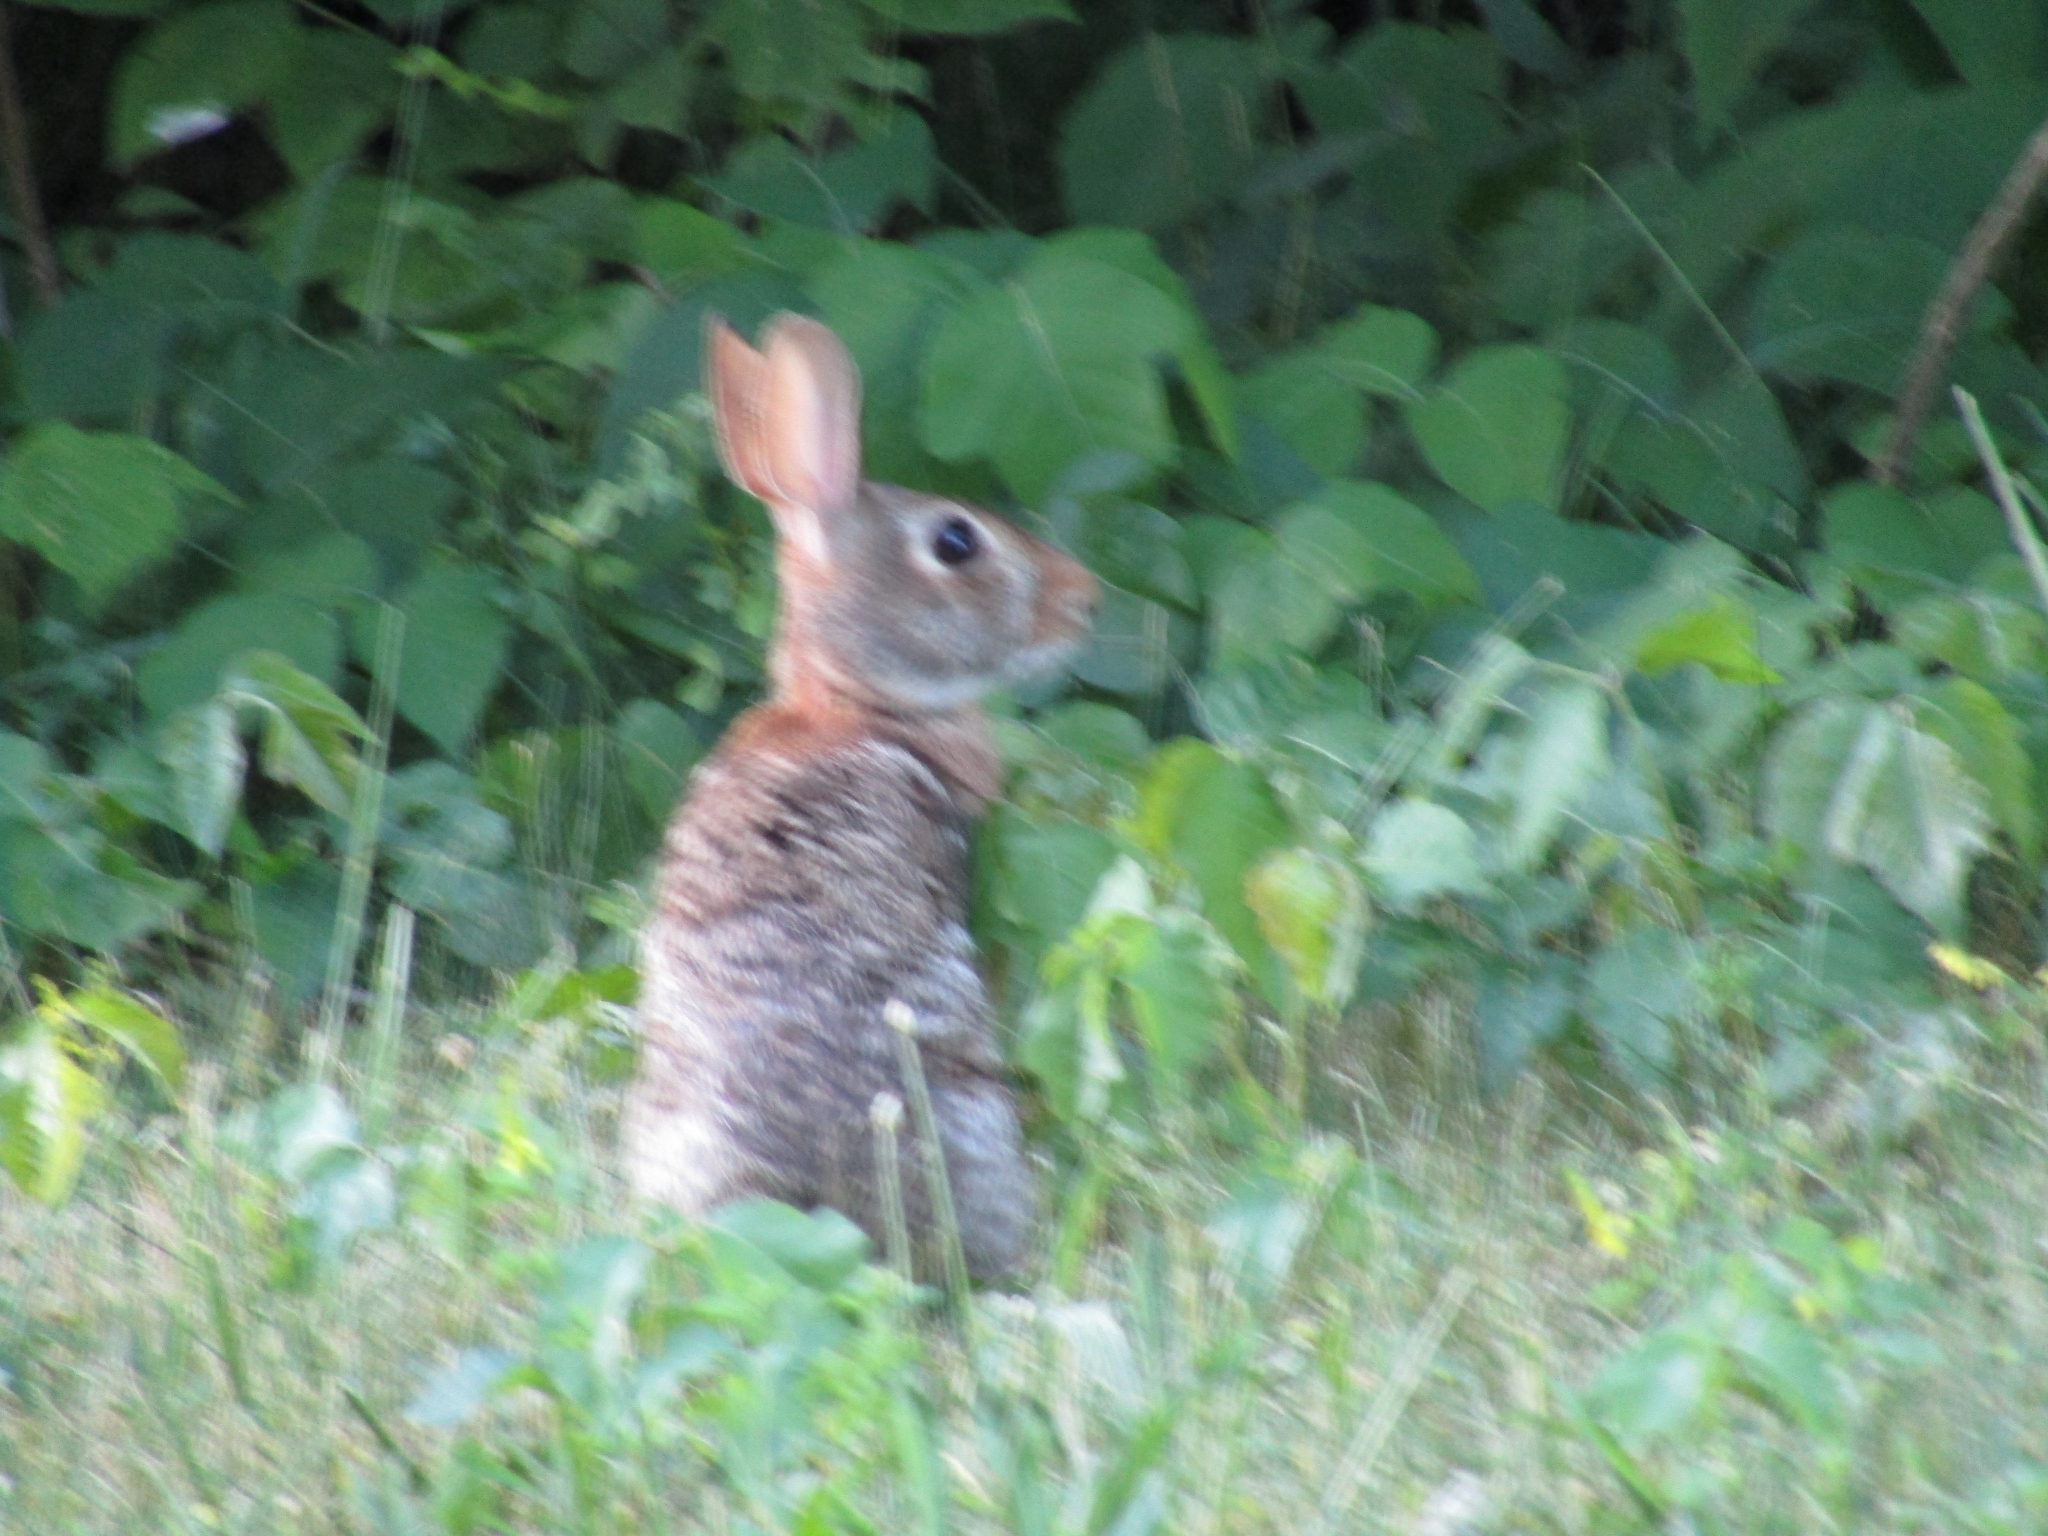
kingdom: Animalia
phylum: Chordata
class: Mammalia
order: Lagomorpha
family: Leporidae
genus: Sylvilagus
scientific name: Sylvilagus floridanus
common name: Eastern cottontail
